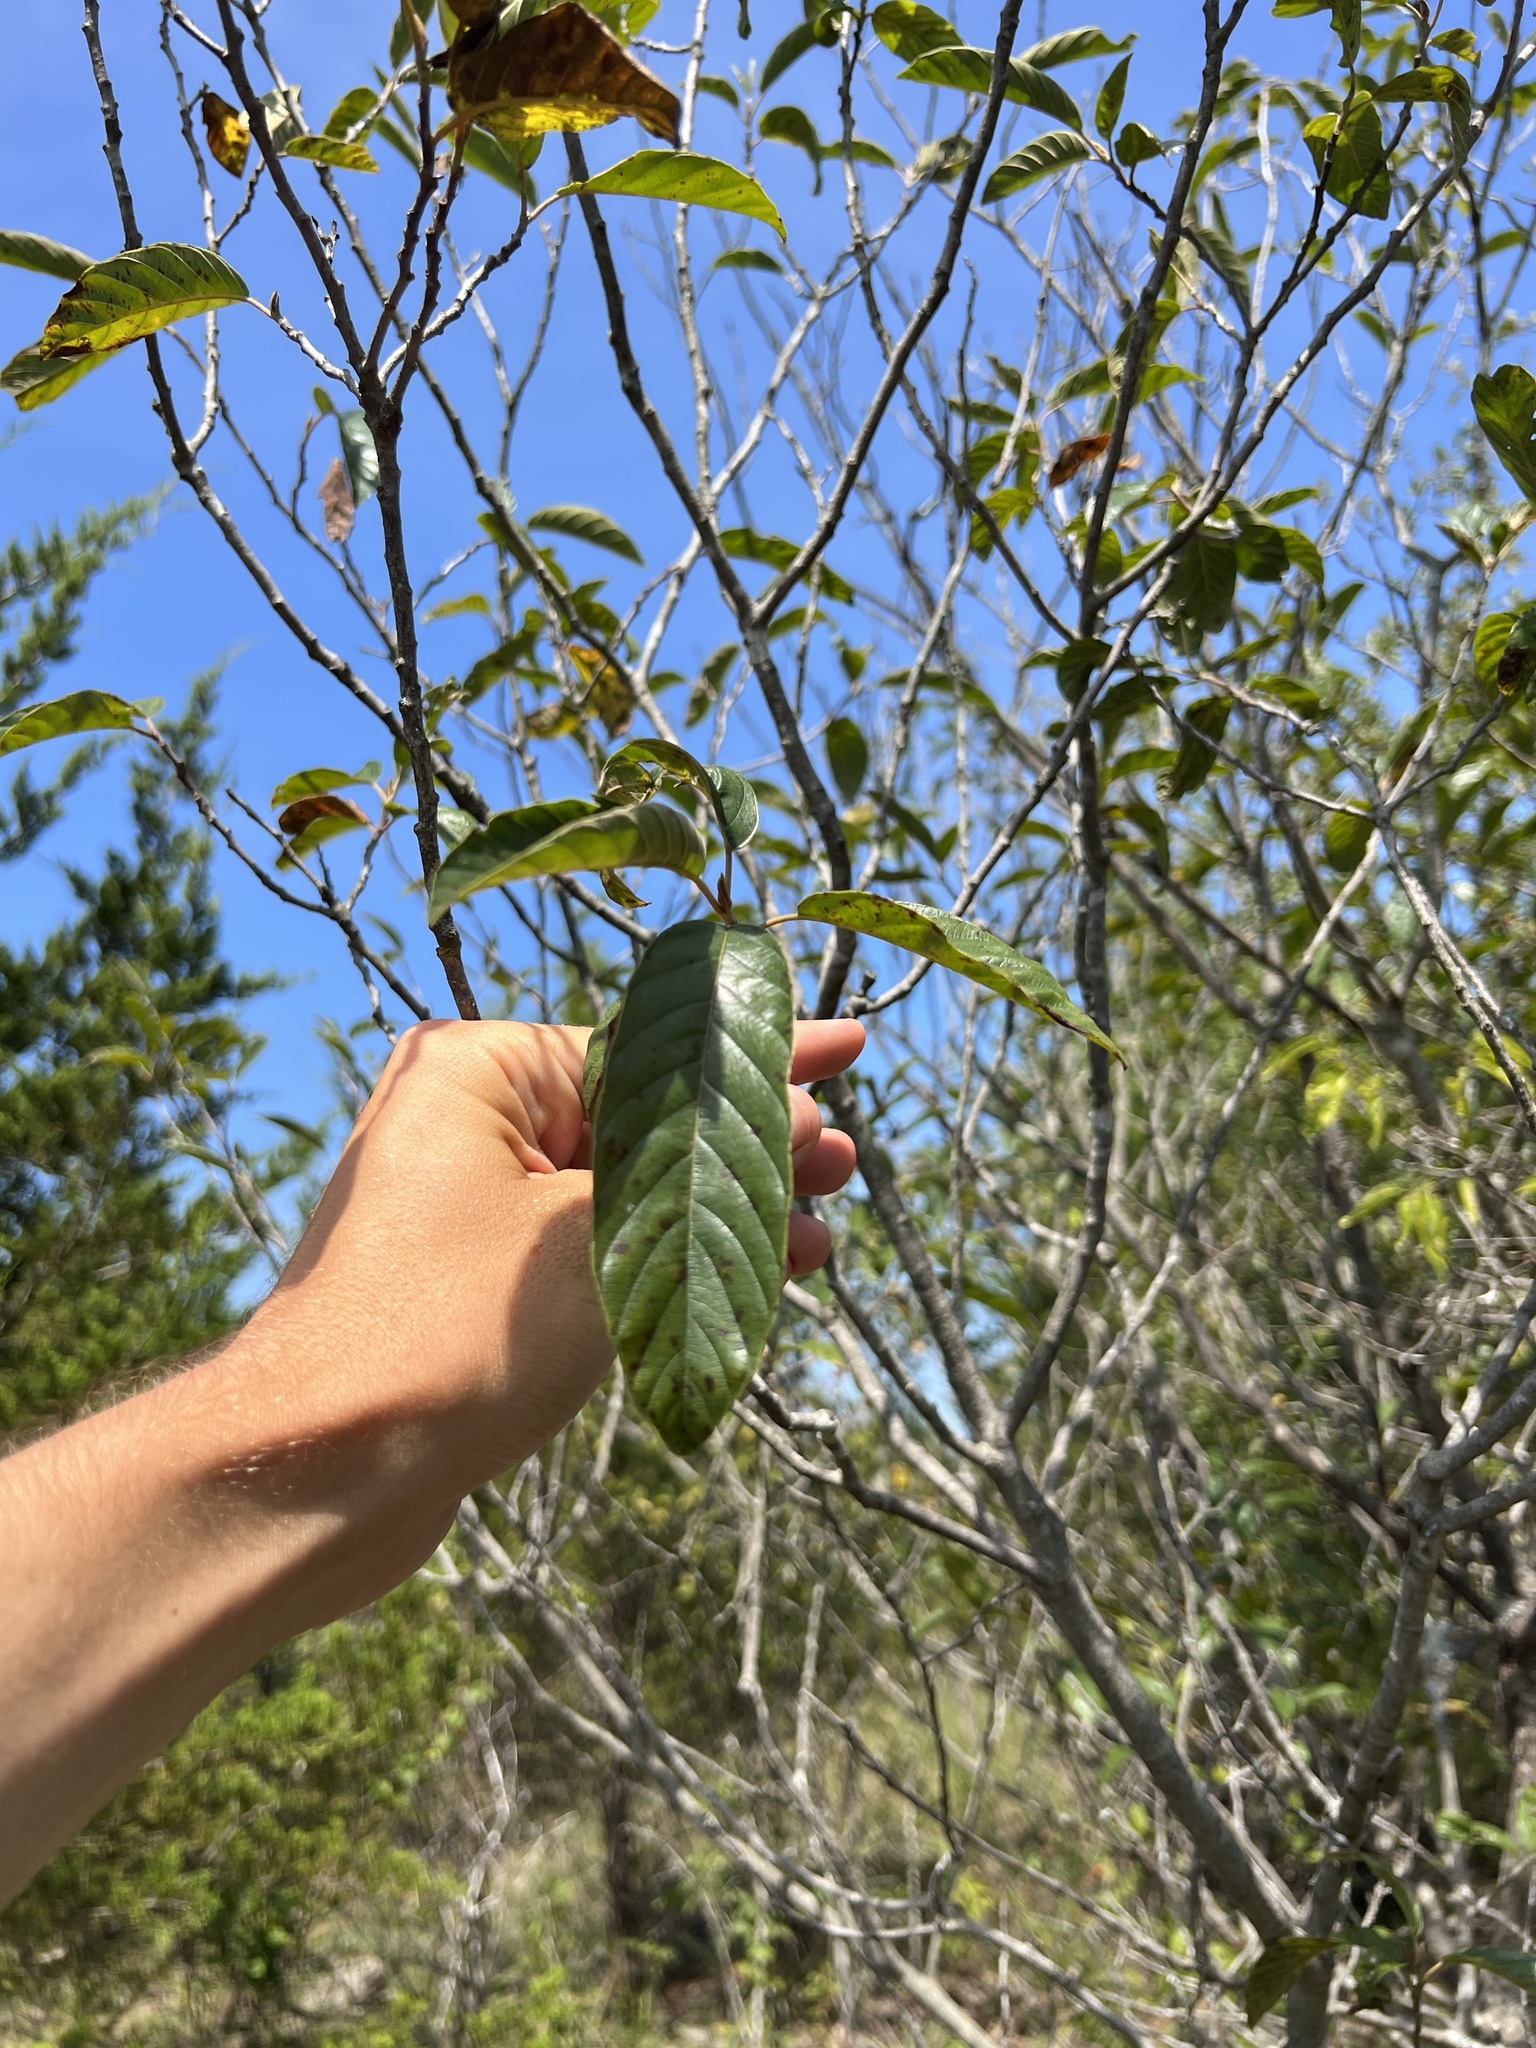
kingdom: Plantae
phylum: Tracheophyta
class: Magnoliopsida
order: Rosales
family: Rhamnaceae
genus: Frangula
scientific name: Frangula caroliniana
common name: Carolina buckthorn
